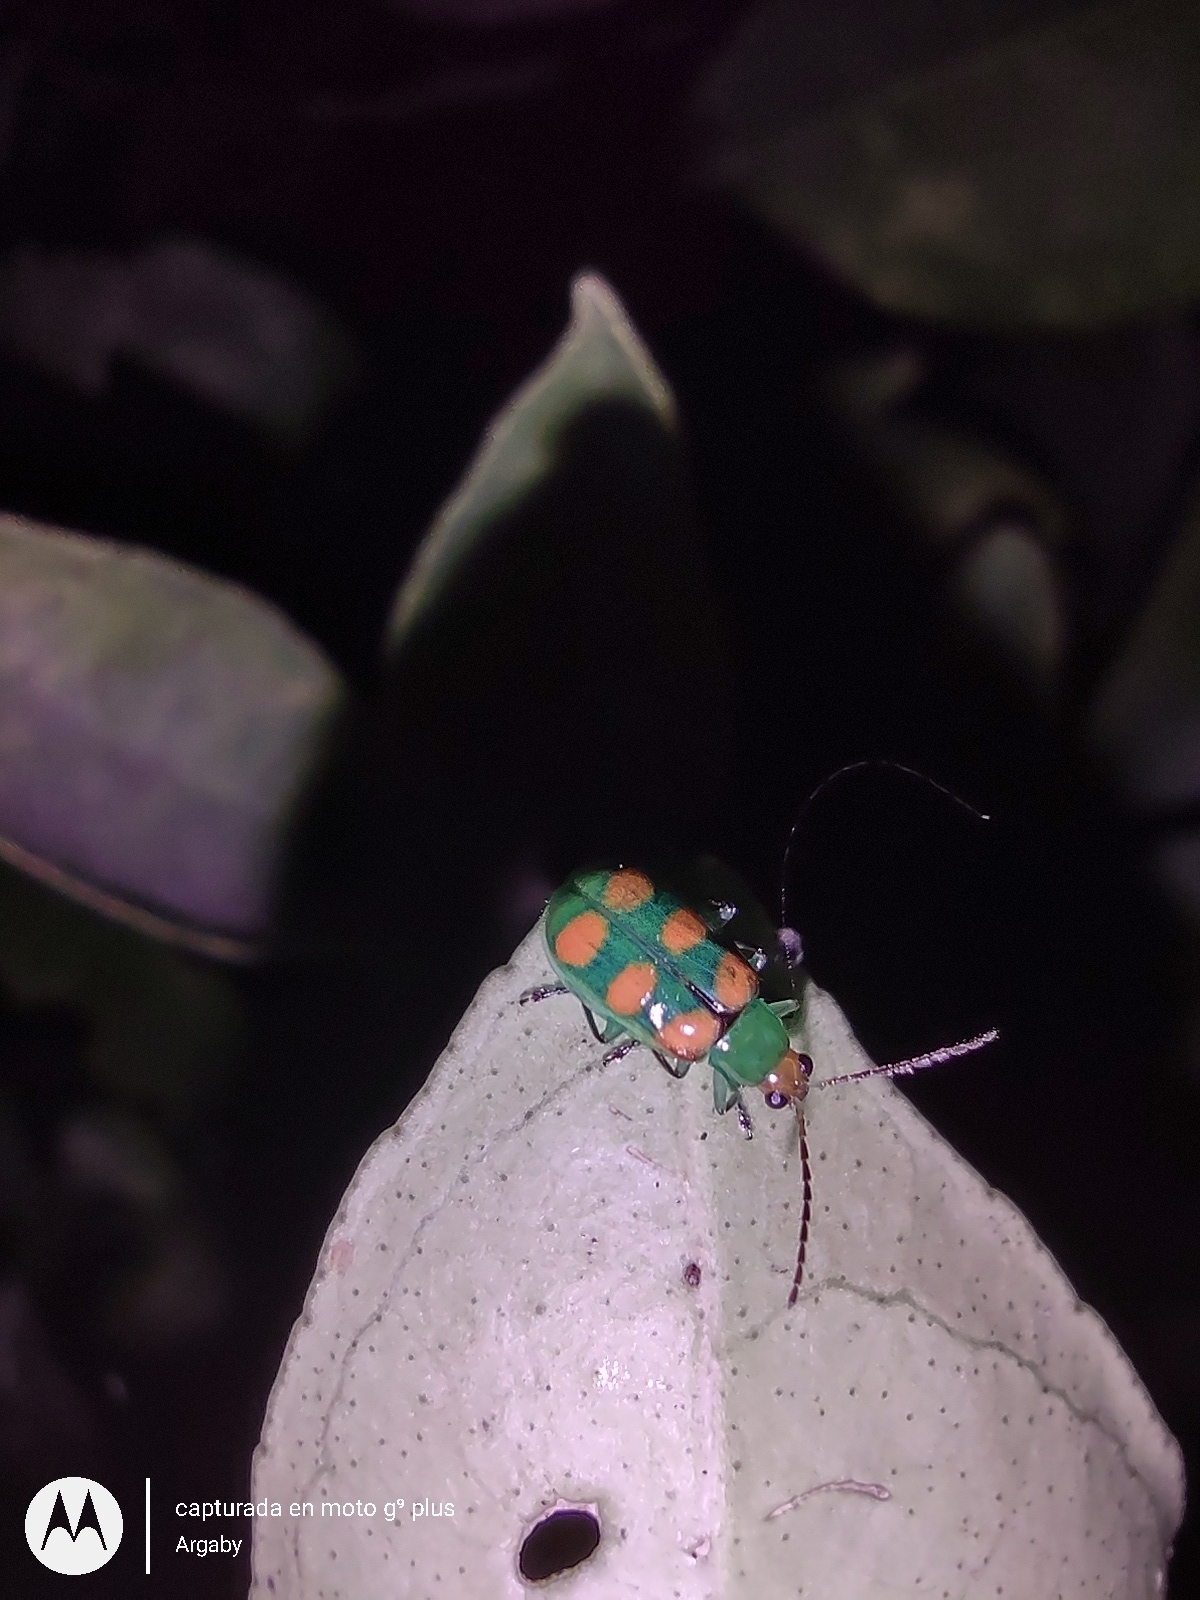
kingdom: Animalia
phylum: Arthropoda
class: Insecta
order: Coleoptera
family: Chrysomelidae
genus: Diabrotica
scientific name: Diabrotica speciosa
